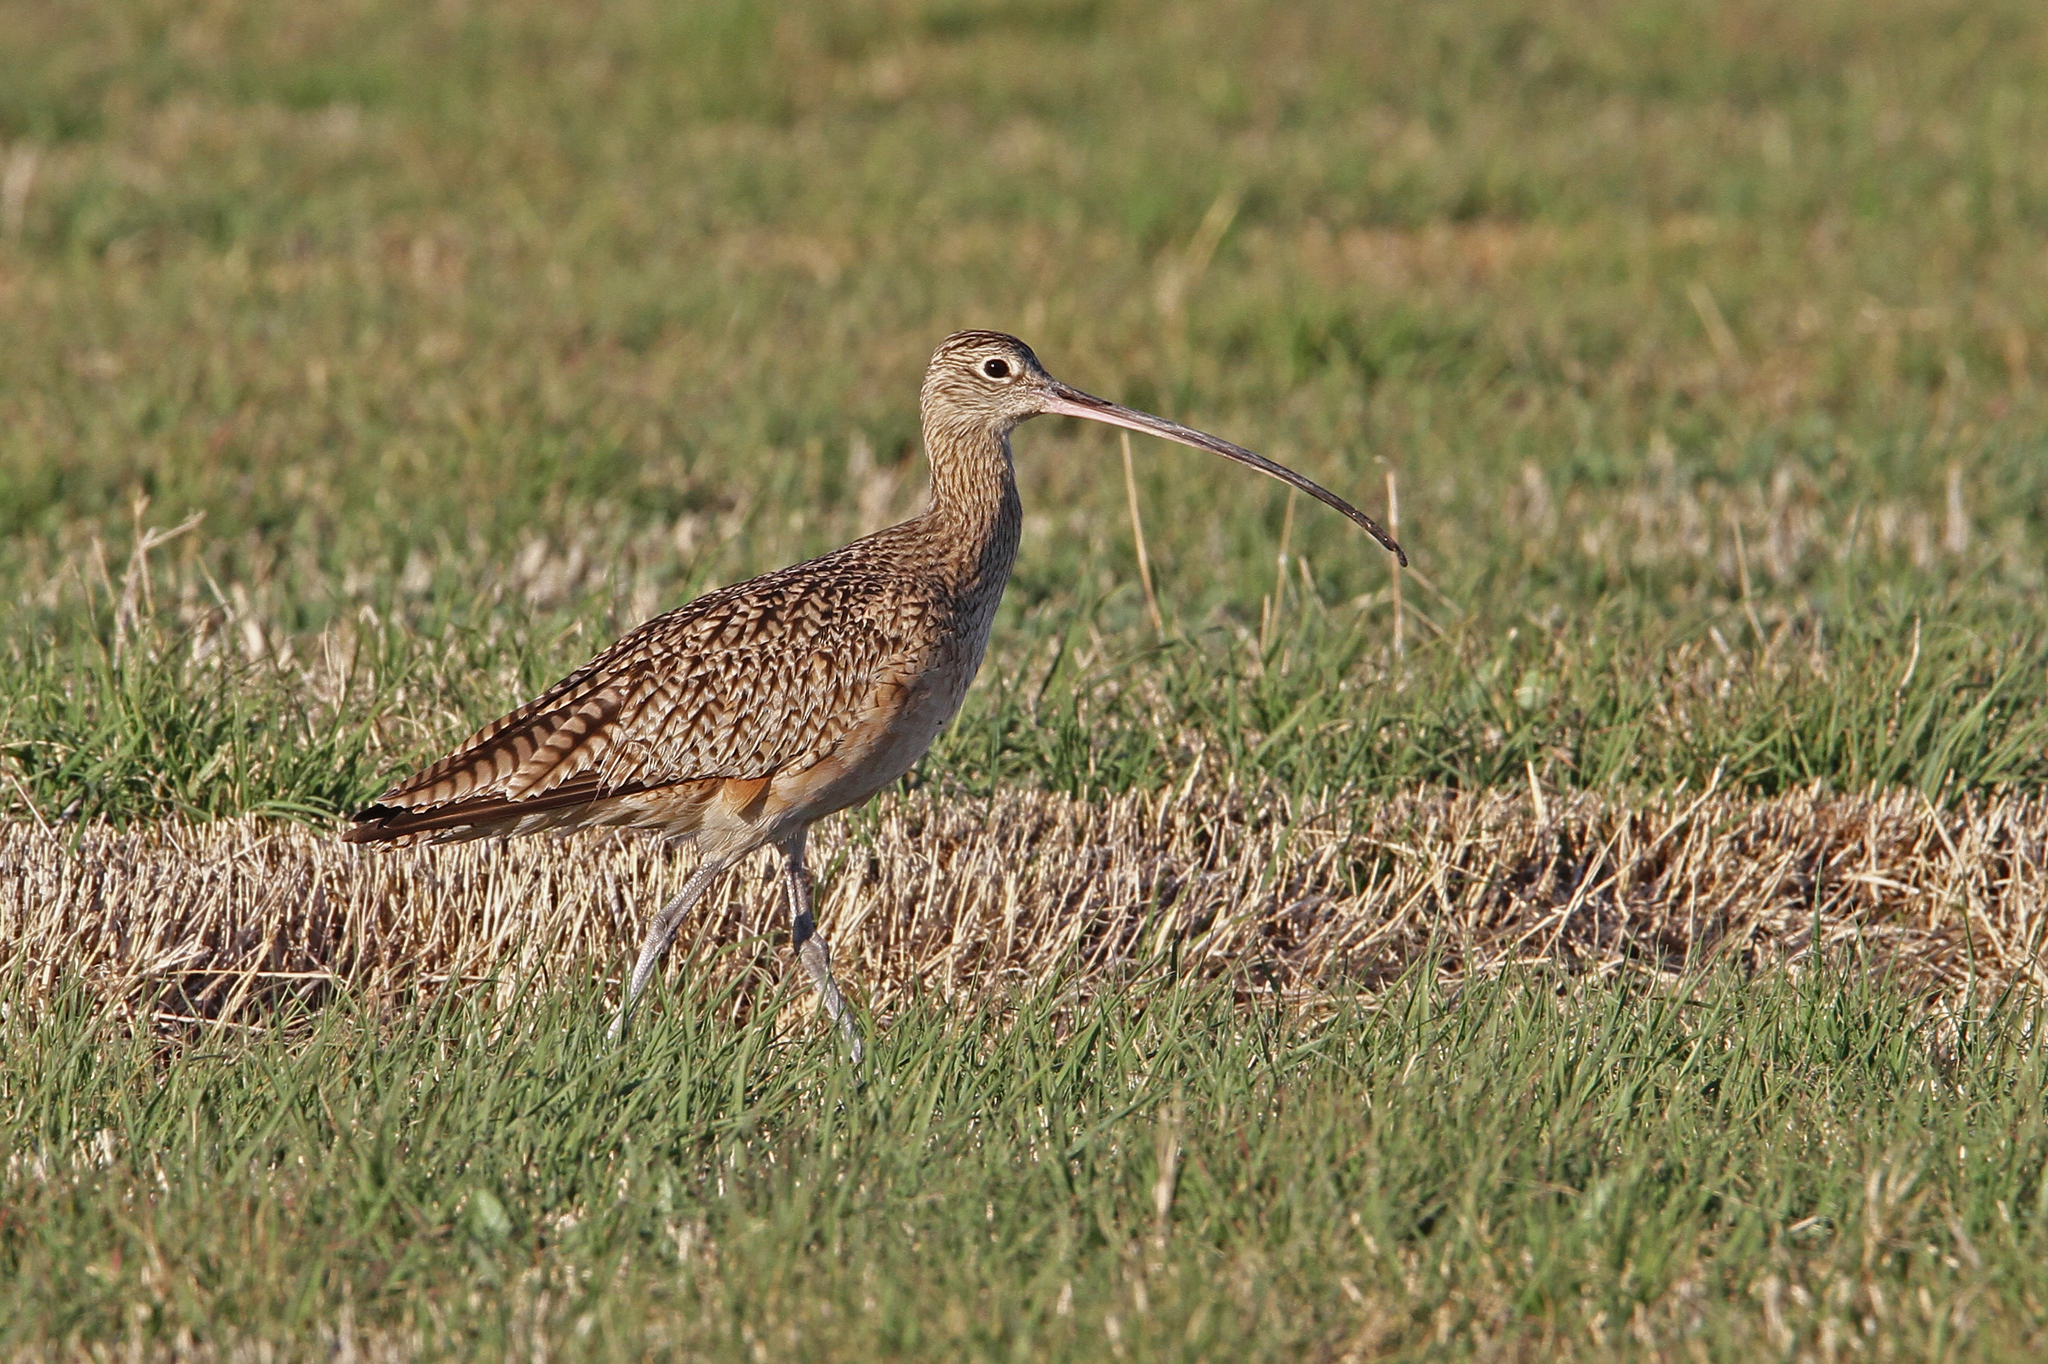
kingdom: Animalia
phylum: Chordata
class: Aves
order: Charadriiformes
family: Scolopacidae
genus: Numenius
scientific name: Numenius americanus
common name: Long-billed curlew
